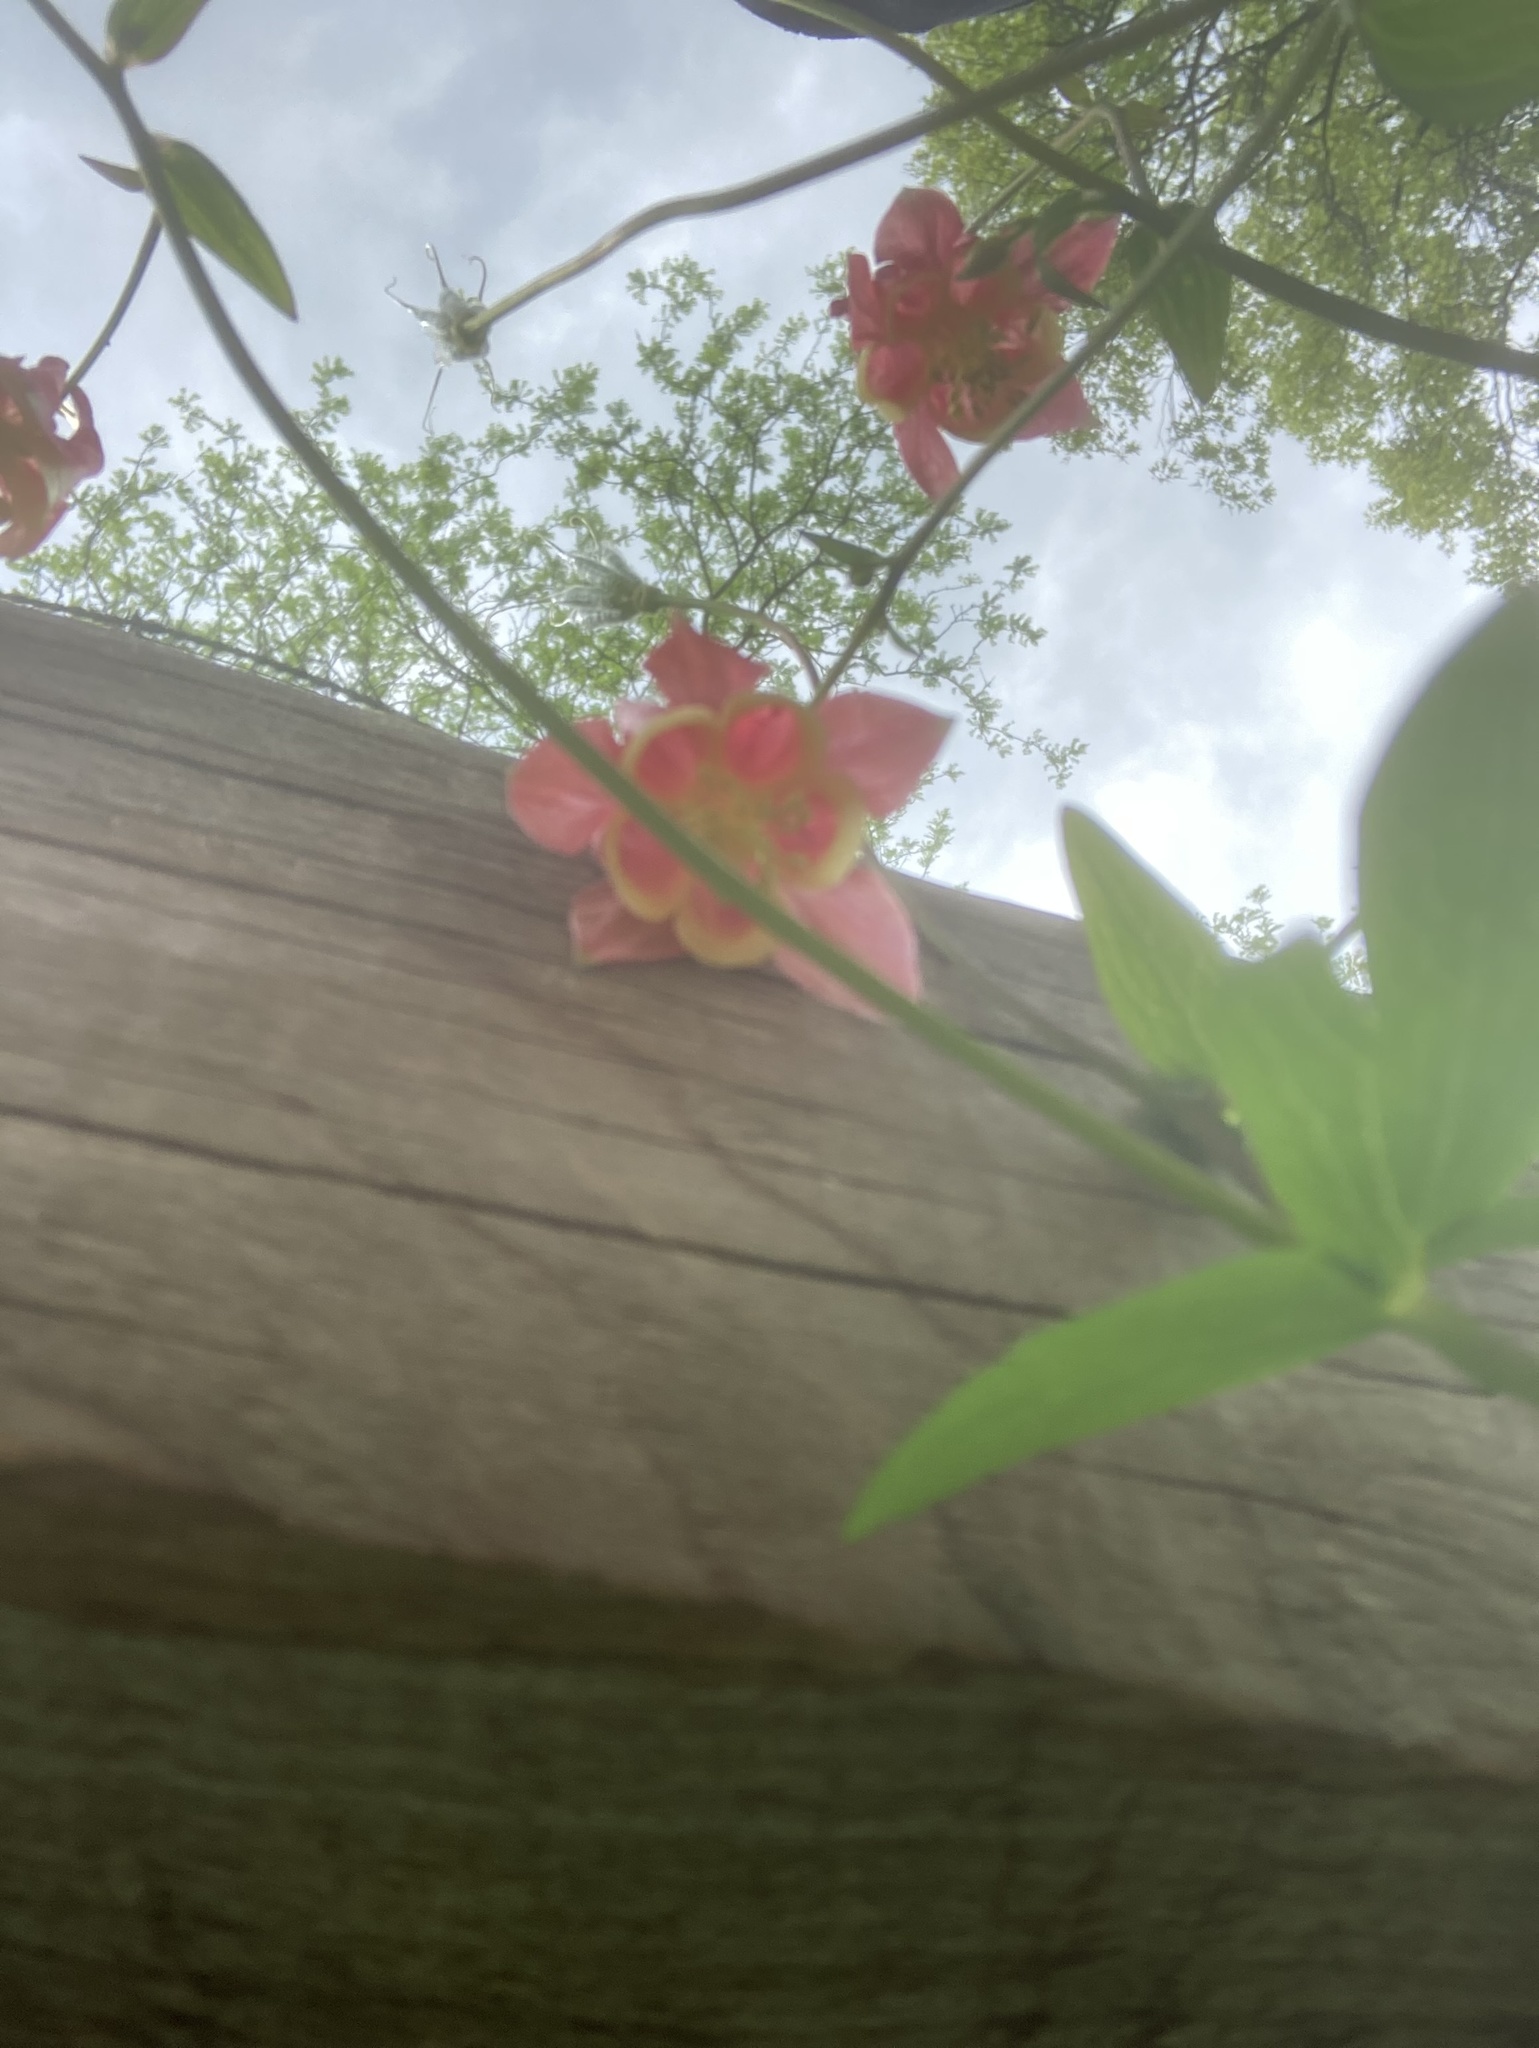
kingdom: Plantae
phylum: Tracheophyta
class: Magnoliopsida
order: Ranunculales
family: Ranunculaceae
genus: Aquilegia
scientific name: Aquilegia canadensis
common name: American columbine
